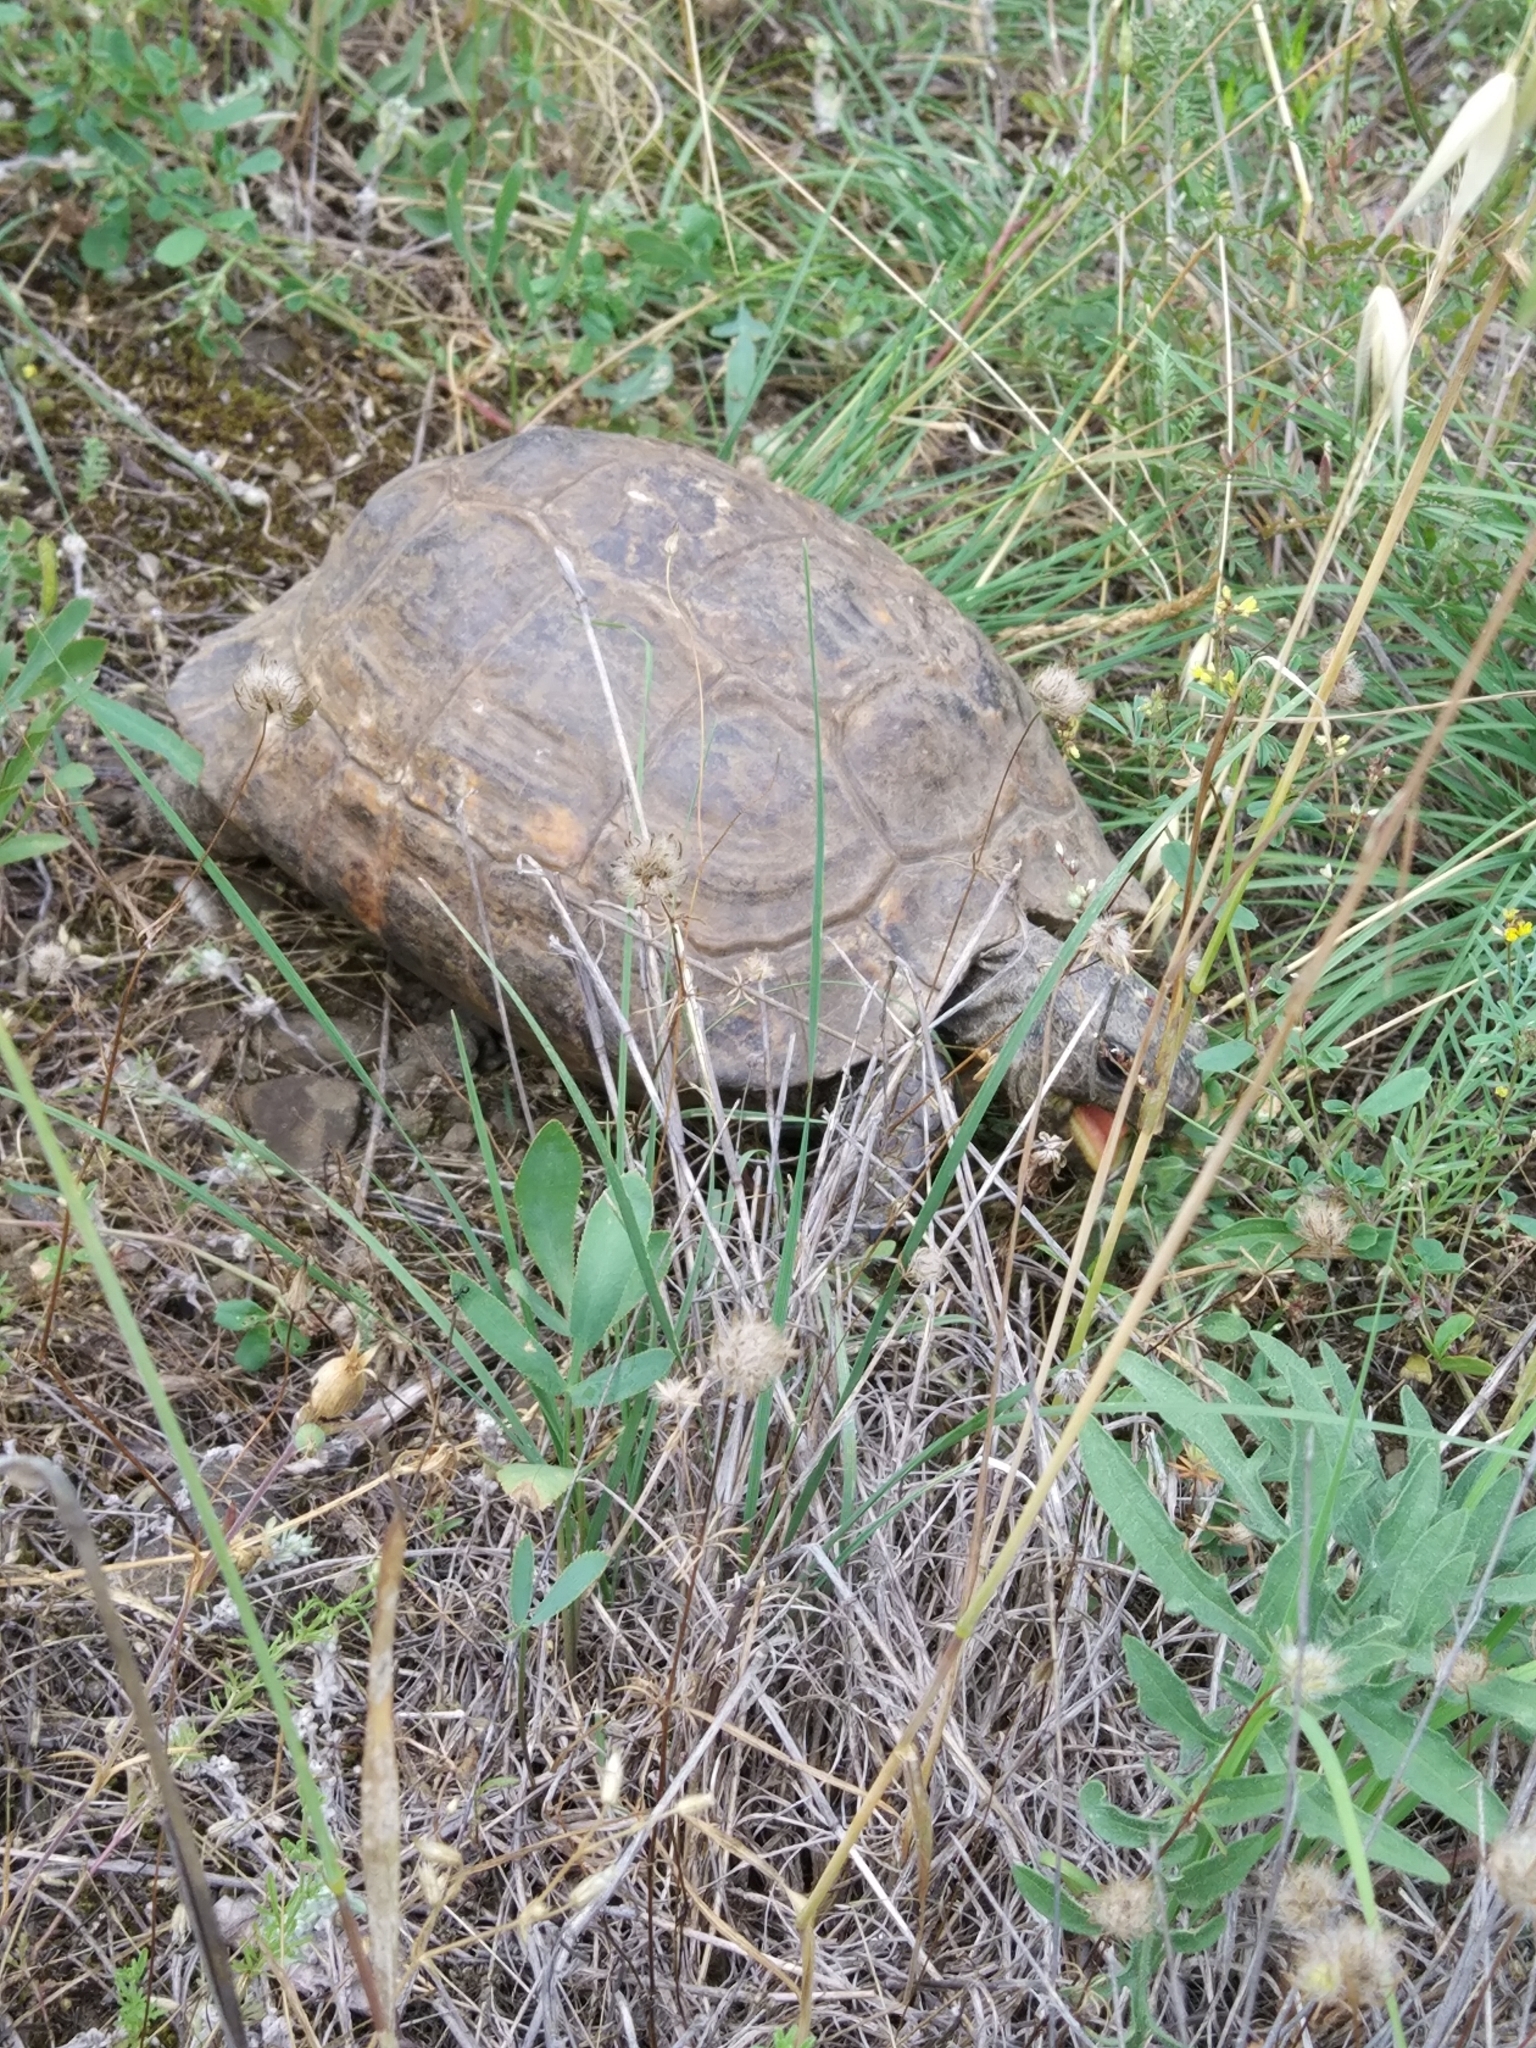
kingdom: Animalia
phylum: Chordata
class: Testudines
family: Testudinidae
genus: Testudo
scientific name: Testudo graeca
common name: Common tortoise
